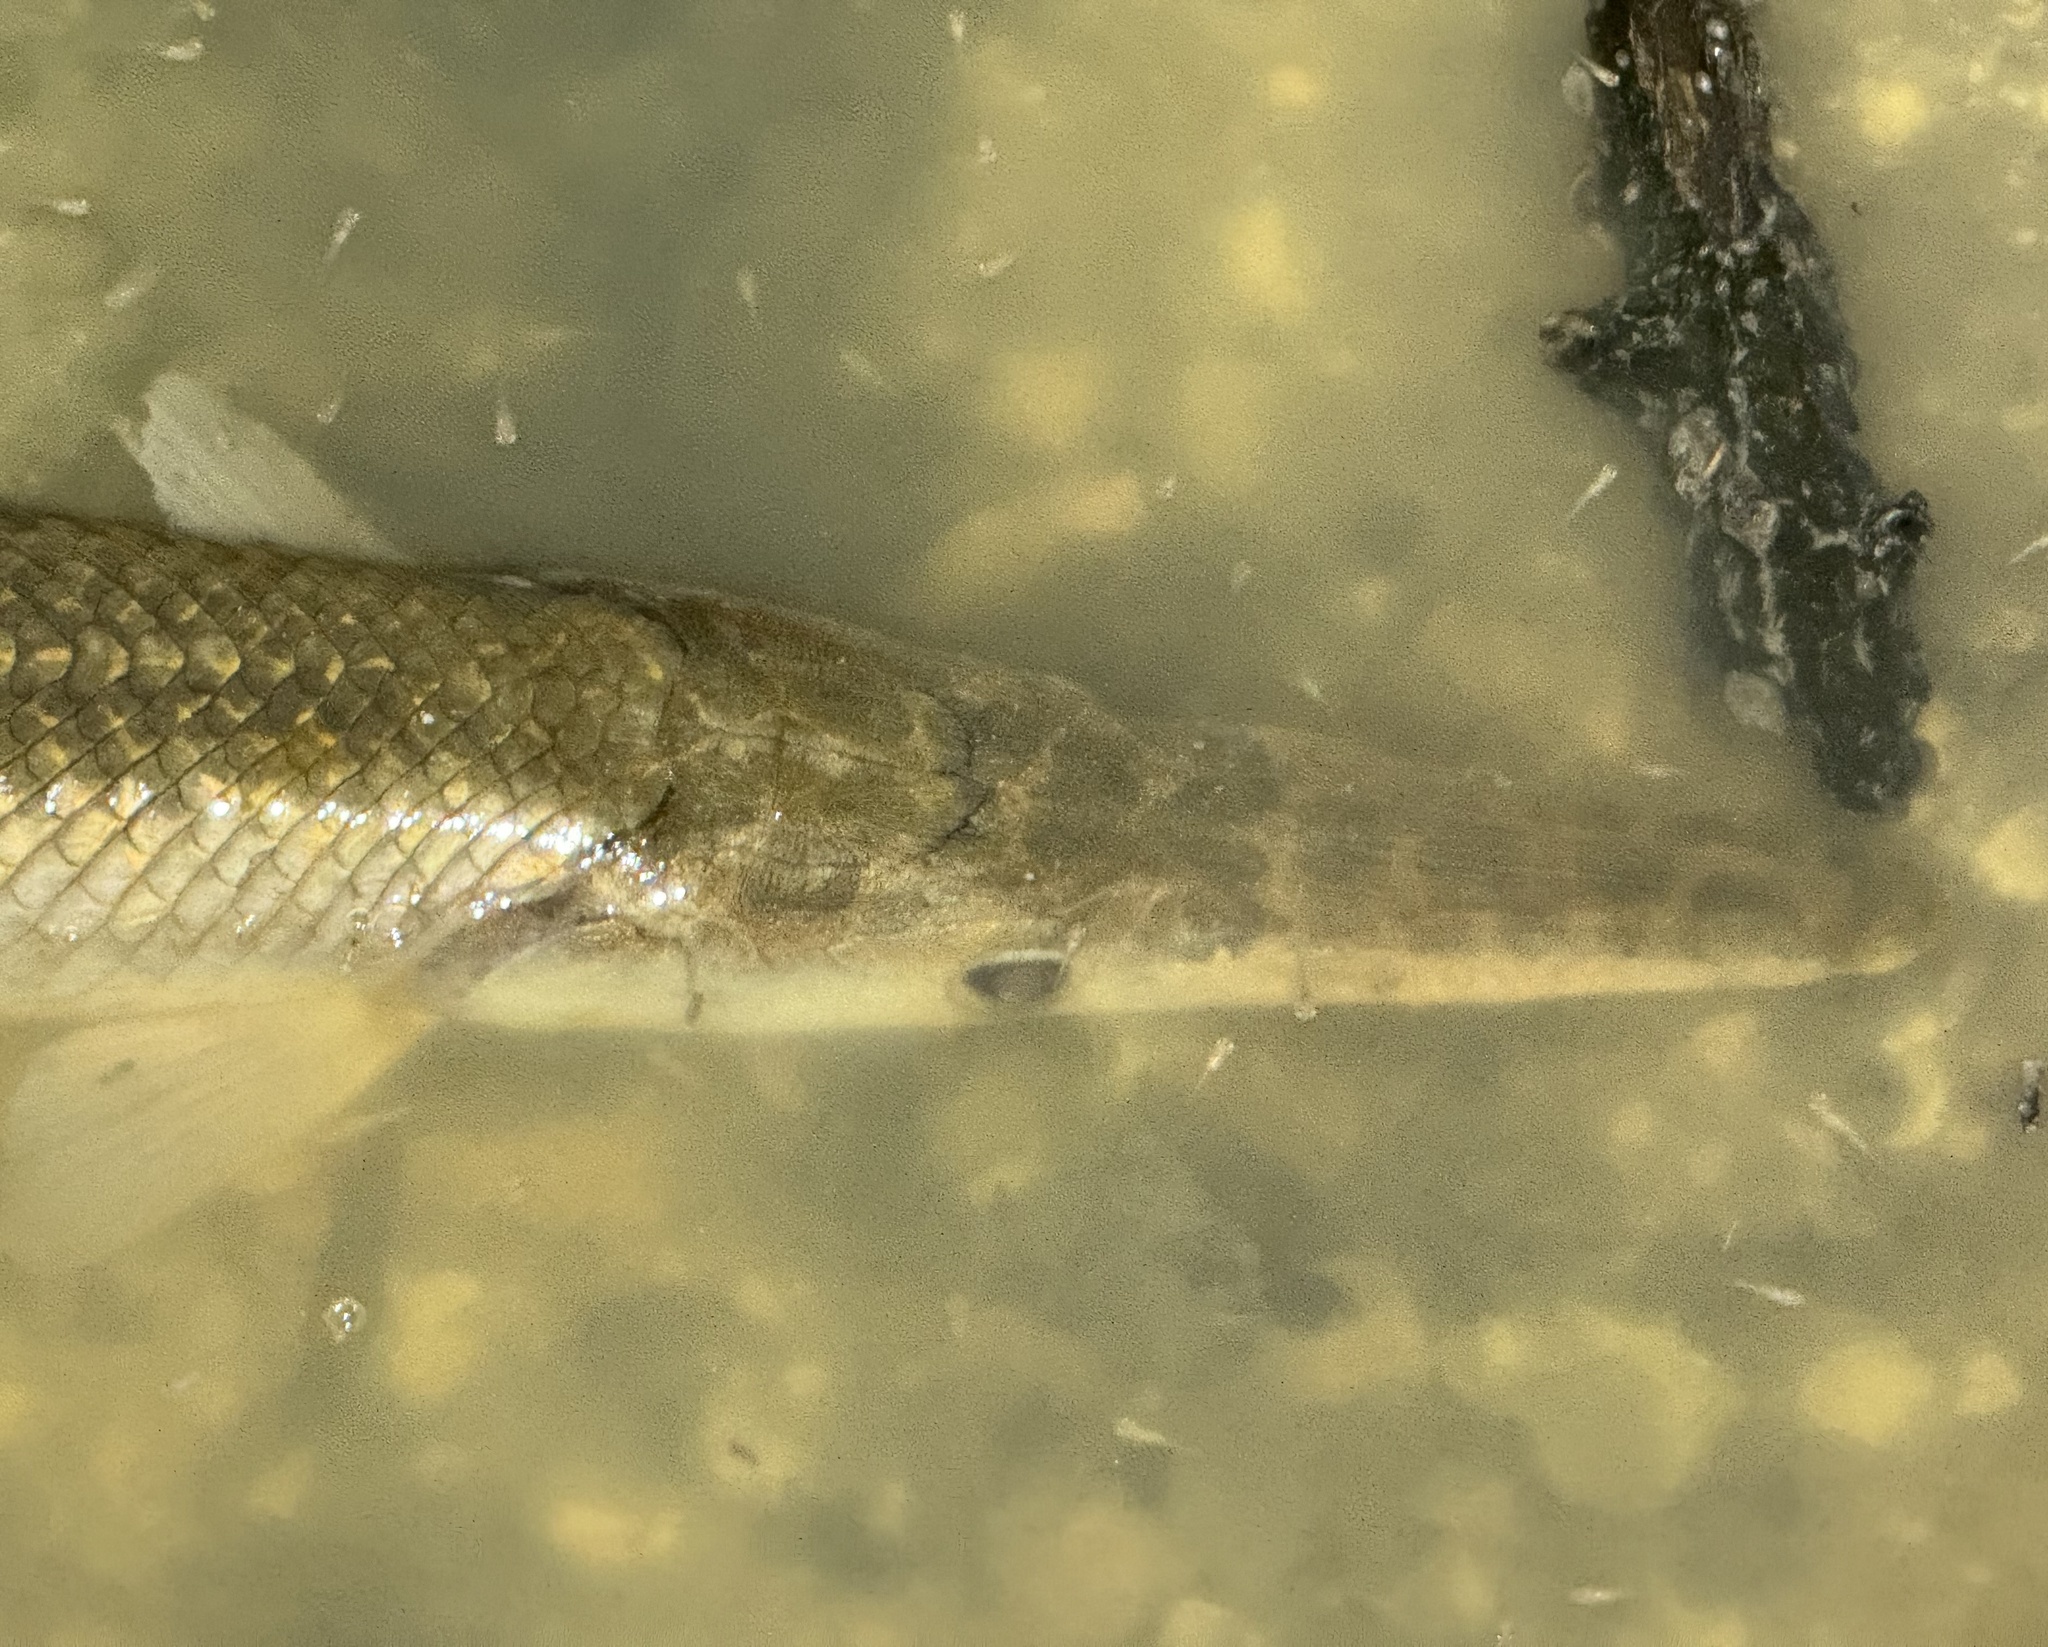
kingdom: Animalia
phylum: Chordata
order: Lepisosteiformes
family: Lepisosteidae
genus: Lepisosteus
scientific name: Lepisosteus oculatus
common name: Spotted gar
